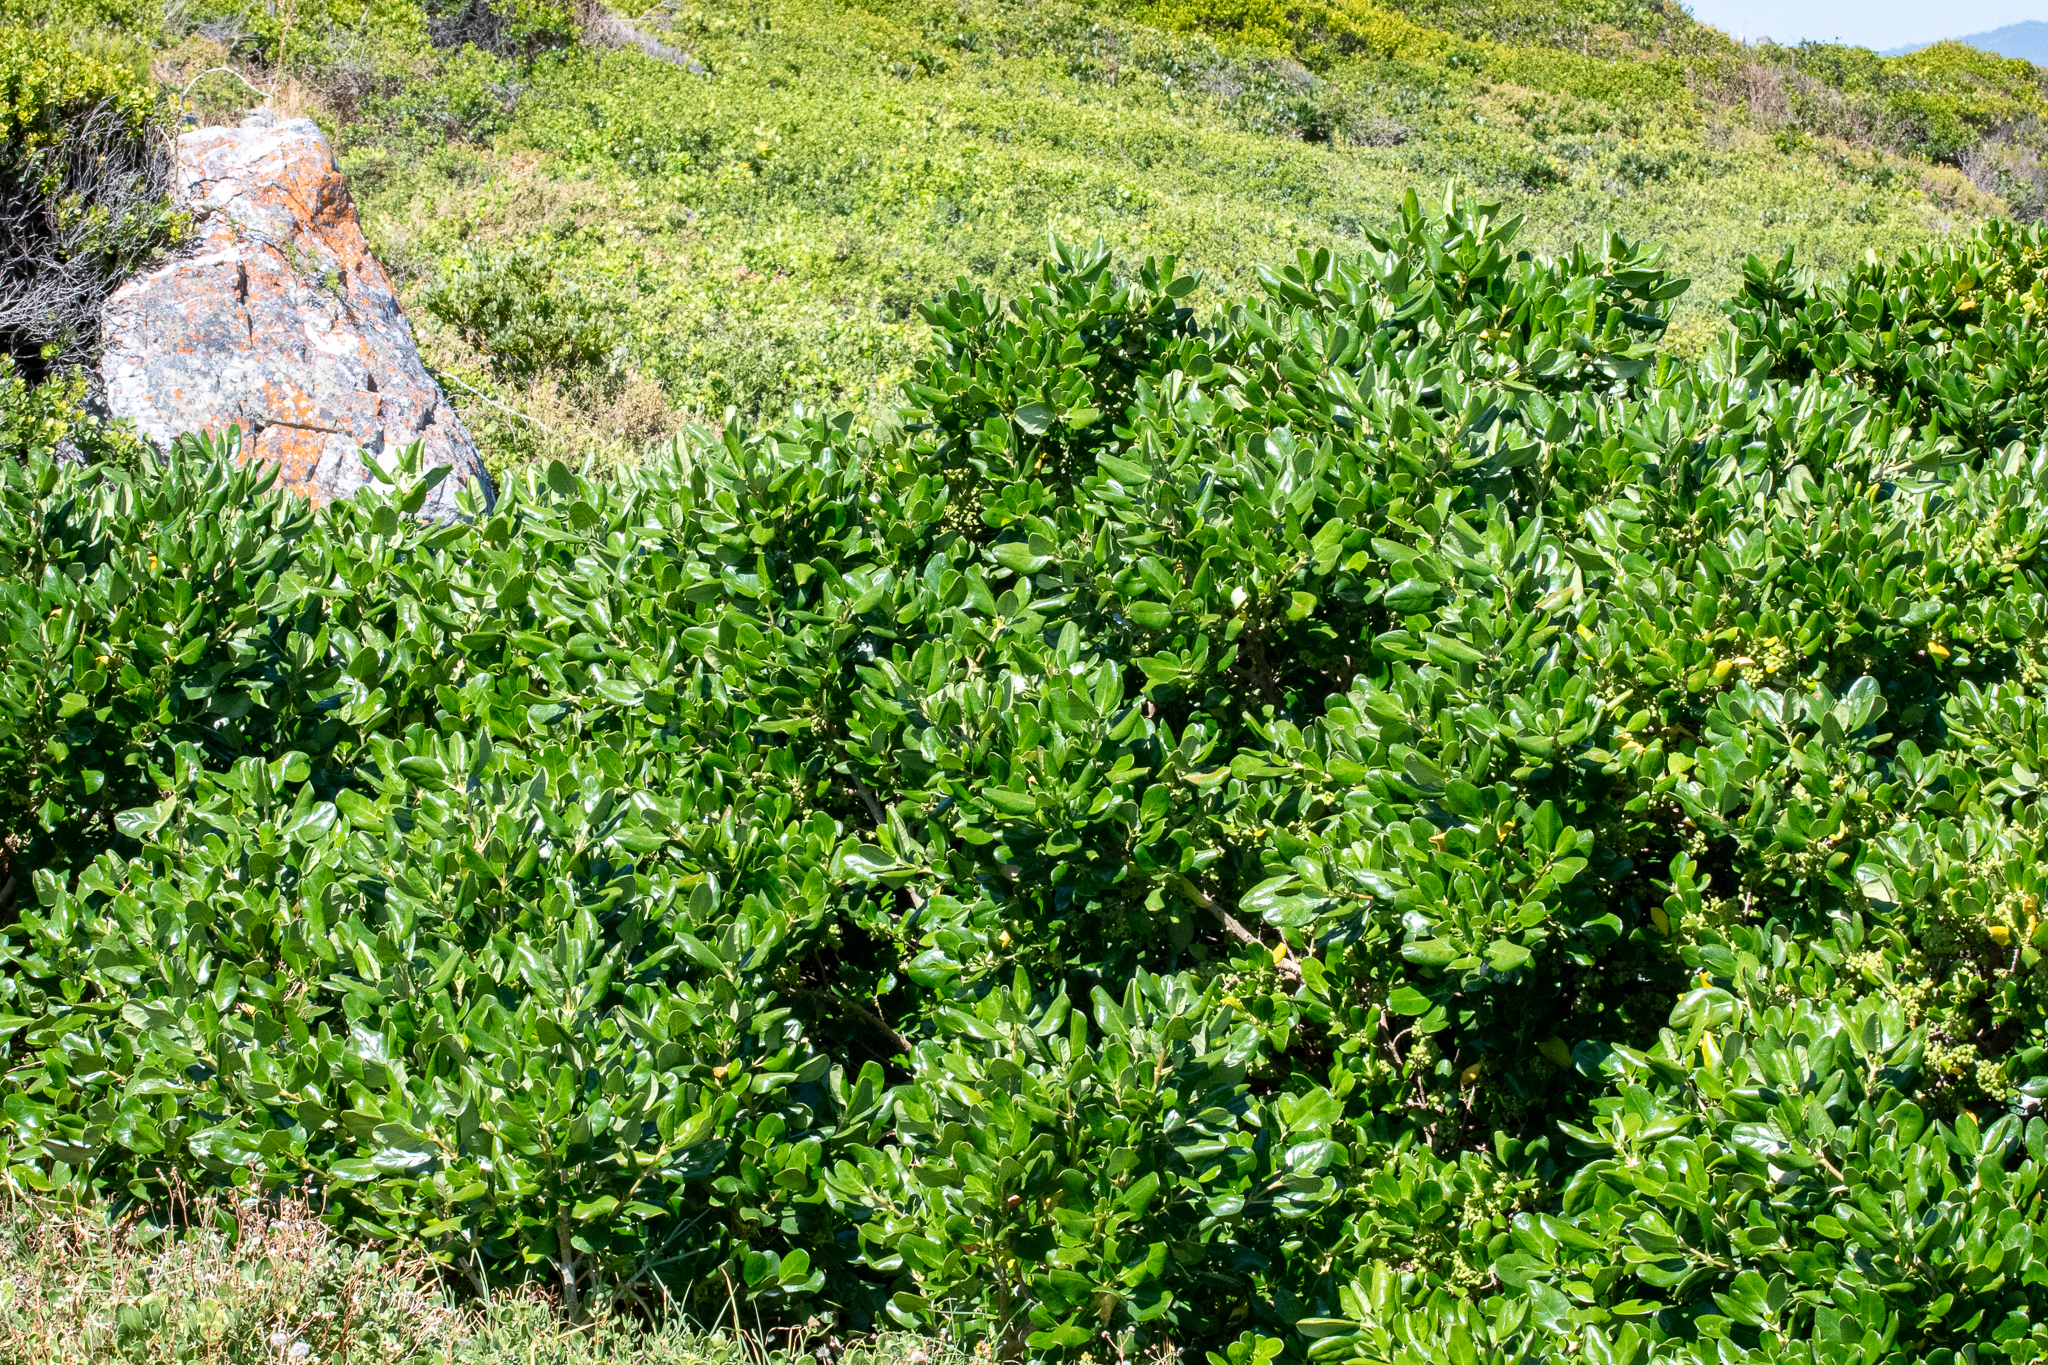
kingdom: Plantae
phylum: Tracheophyta
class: Magnoliopsida
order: Gentianales
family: Rubiaceae
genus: Coprosma
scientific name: Coprosma repens
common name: Tree bedstraw
